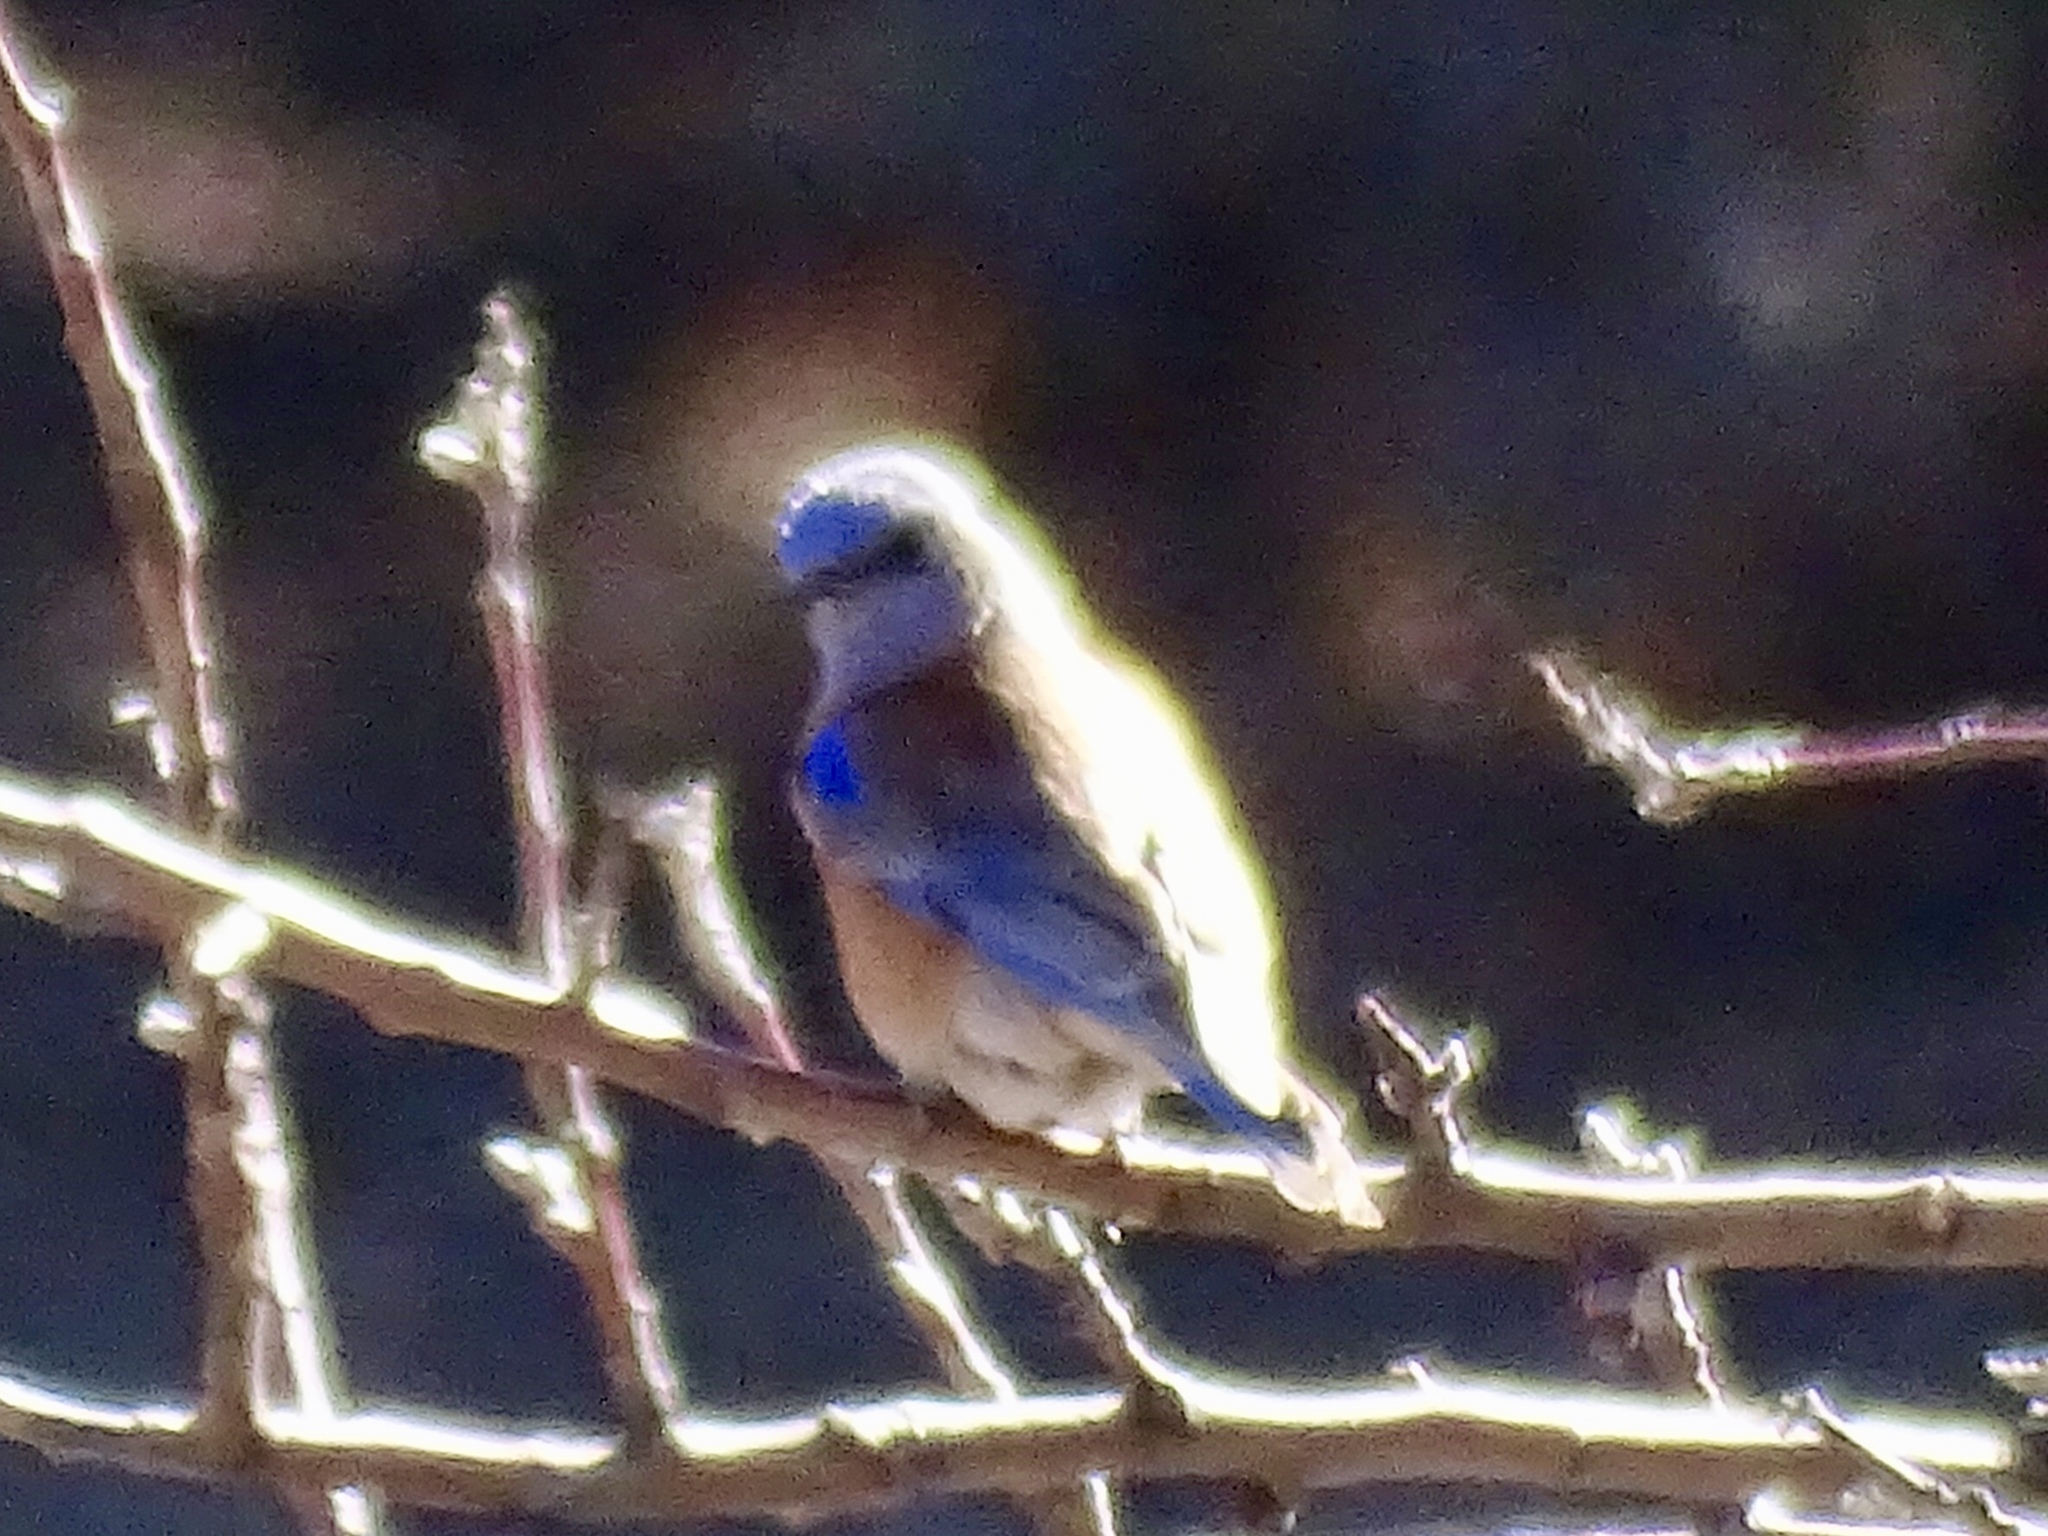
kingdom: Animalia
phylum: Chordata
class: Aves
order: Passeriformes
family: Turdidae
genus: Sialia
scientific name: Sialia mexicana
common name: Western bluebird
